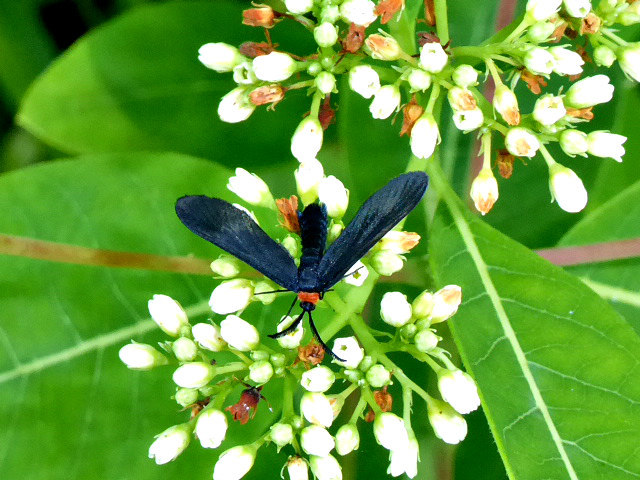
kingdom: Animalia
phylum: Arthropoda
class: Insecta
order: Lepidoptera
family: Zygaenidae
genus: Harrisina
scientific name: Harrisina americana
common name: Grapeleaf skeletonizer moth
